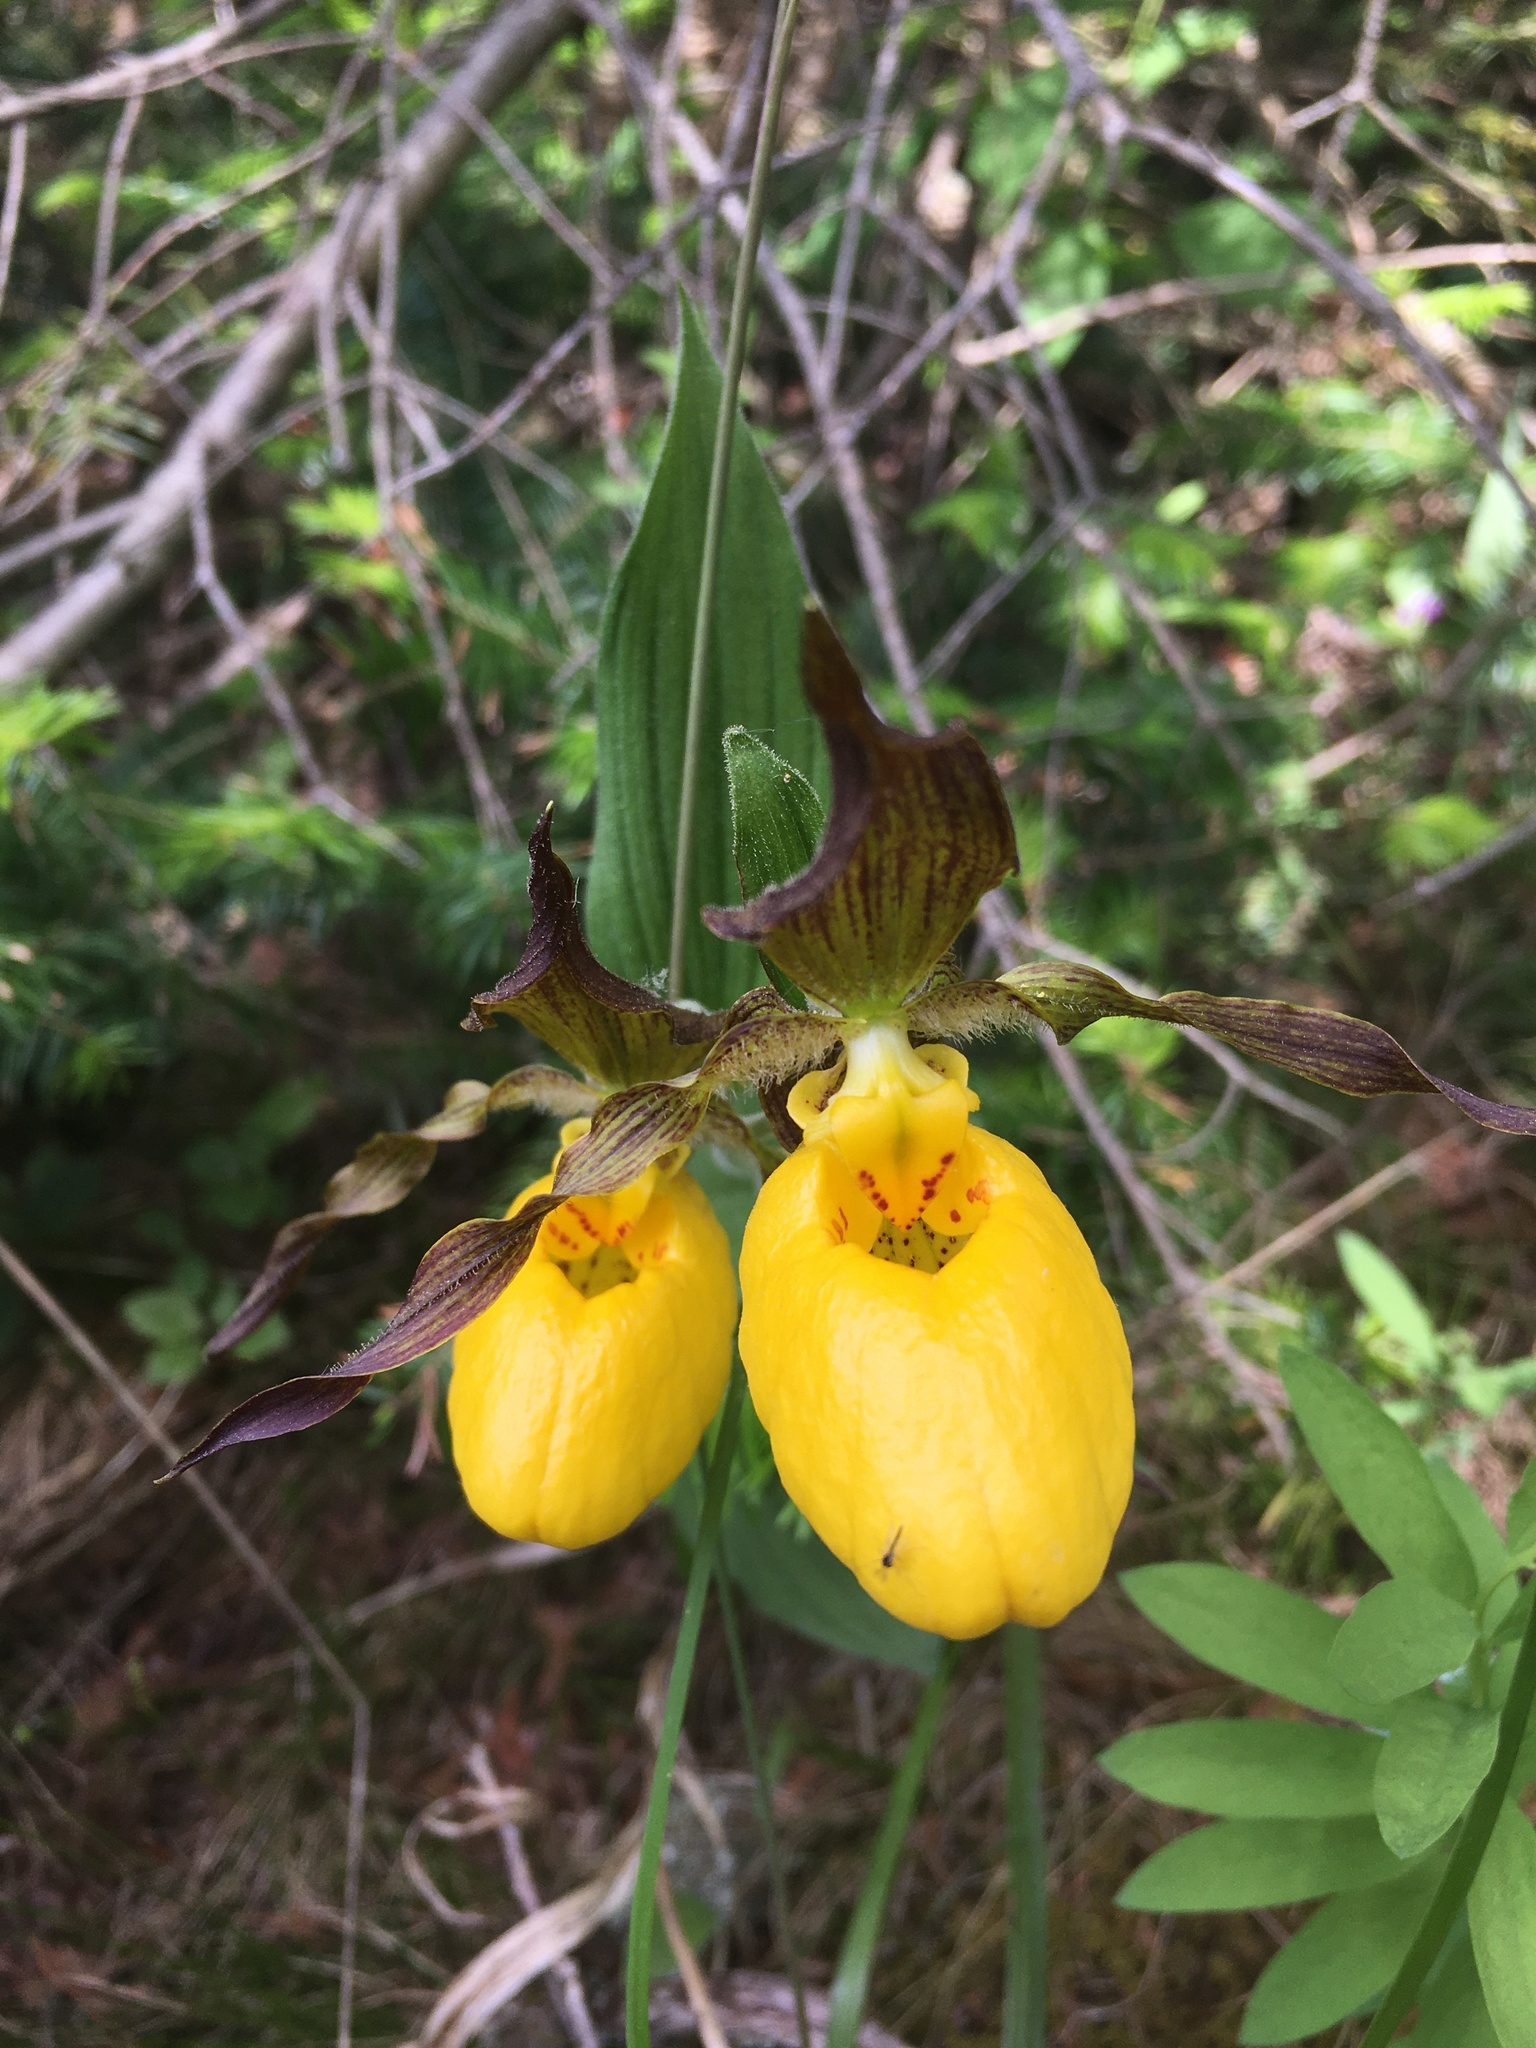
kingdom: Plantae
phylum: Tracheophyta
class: Liliopsida
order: Asparagales
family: Orchidaceae
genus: Cypripedium
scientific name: Cypripedium parviflorum
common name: American yellow lady's-slipper
